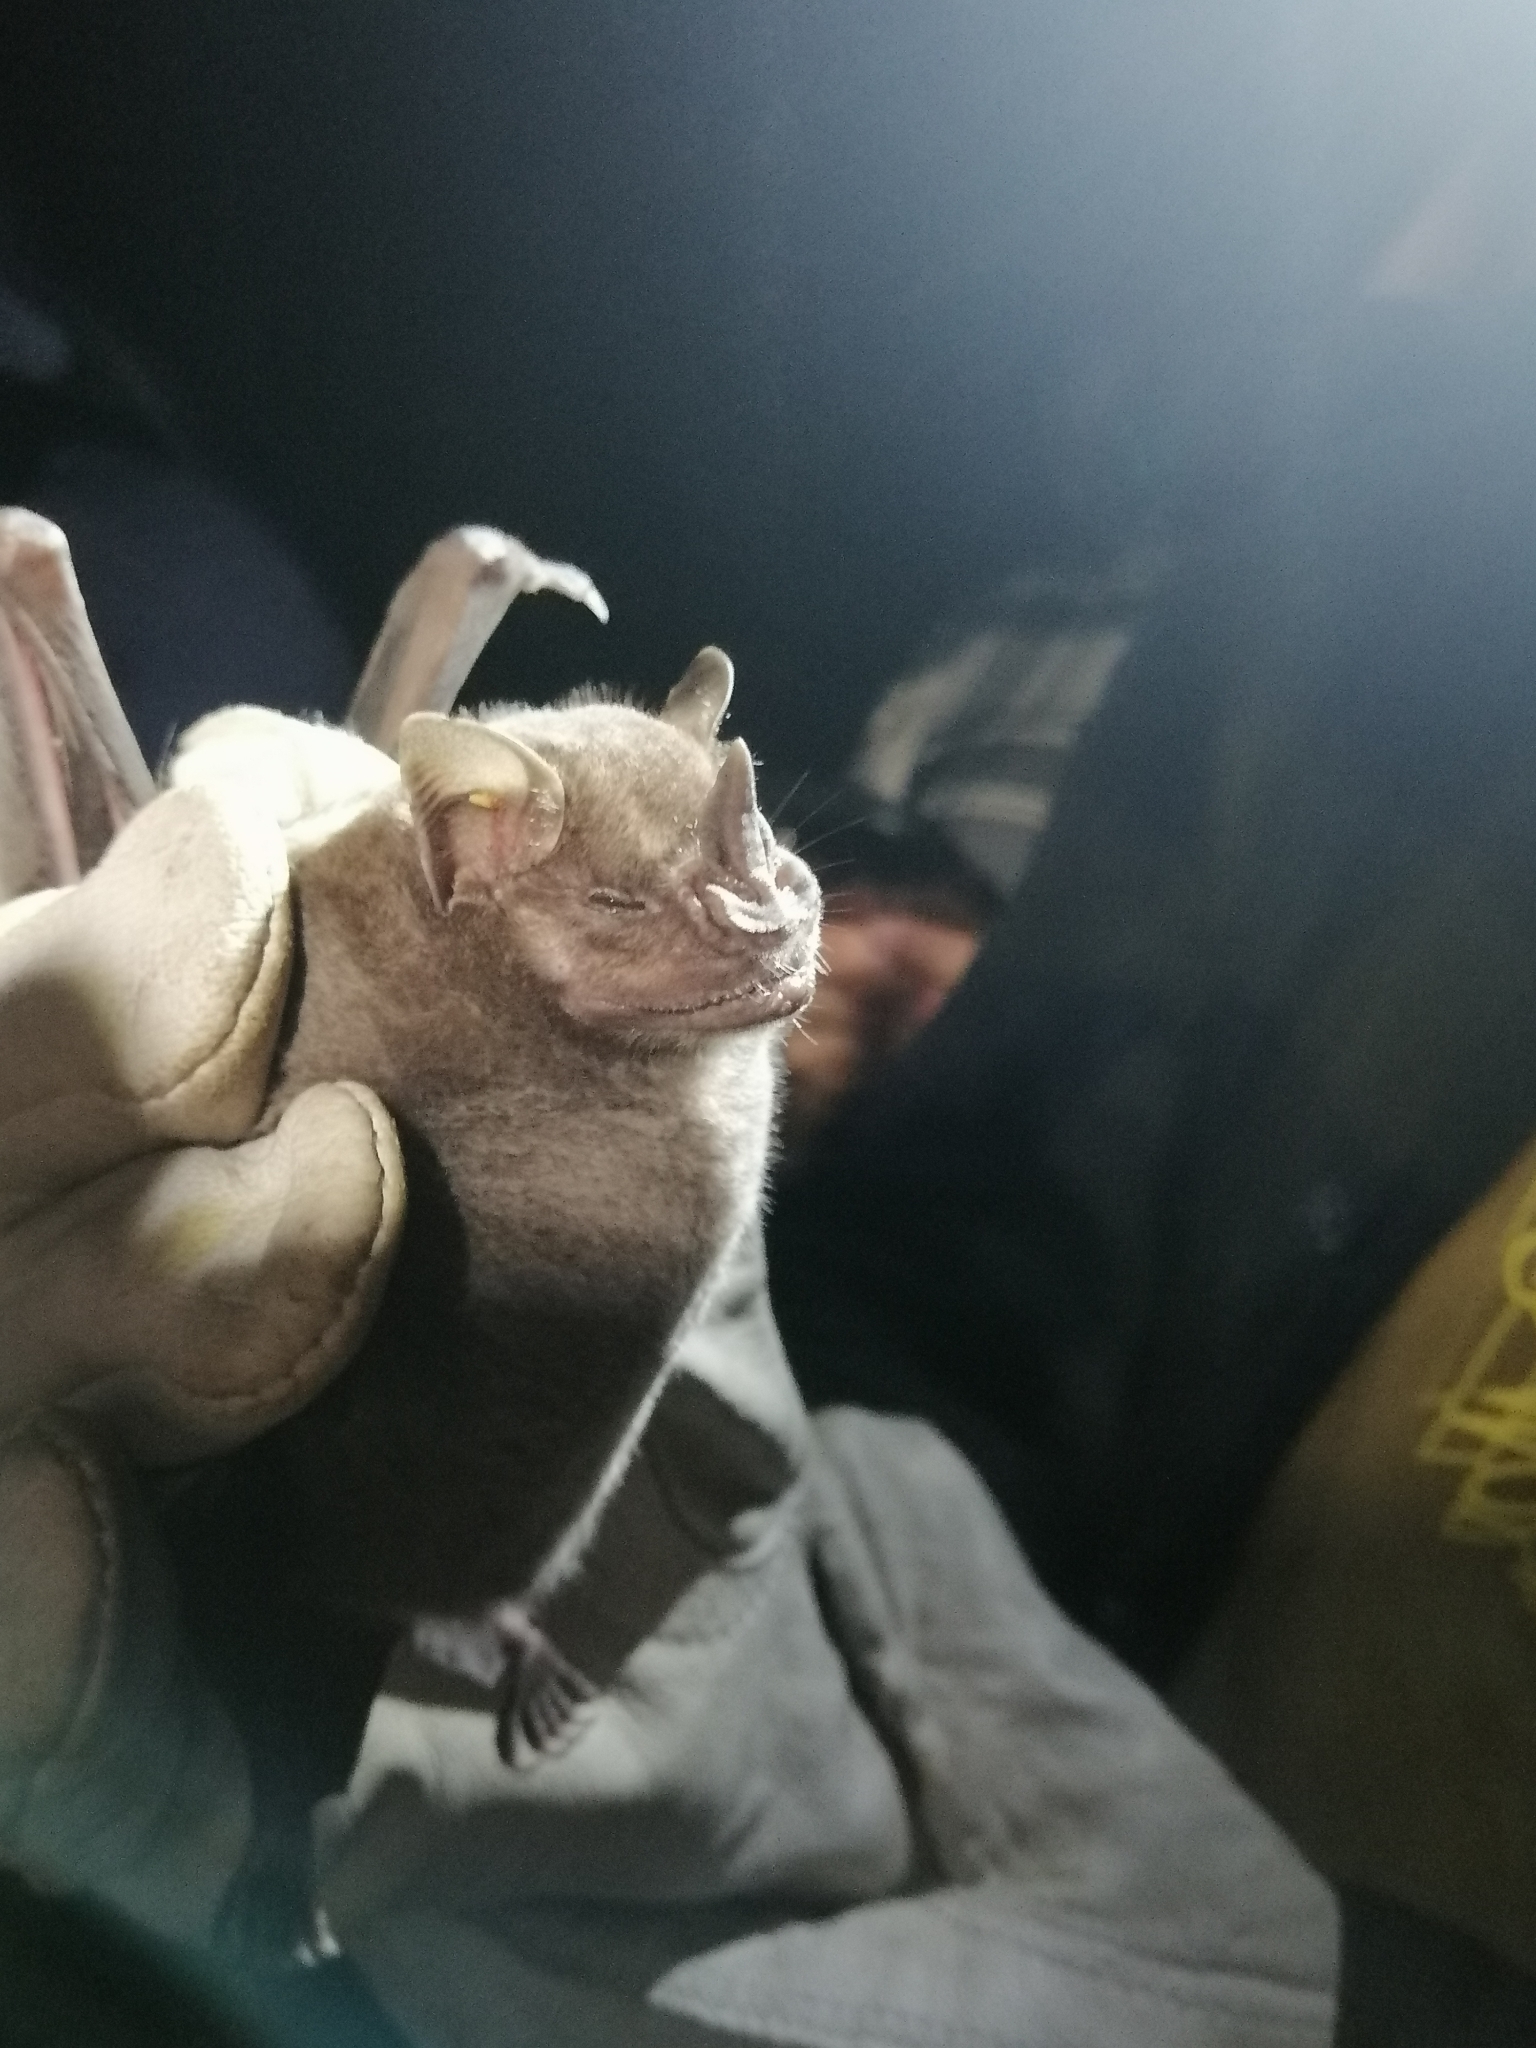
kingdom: Animalia
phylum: Chordata
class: Mammalia
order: Chiroptera
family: Phyllostomidae
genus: Artibeus
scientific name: Artibeus jamaicensis
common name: Jamaican fruit-eating bat
